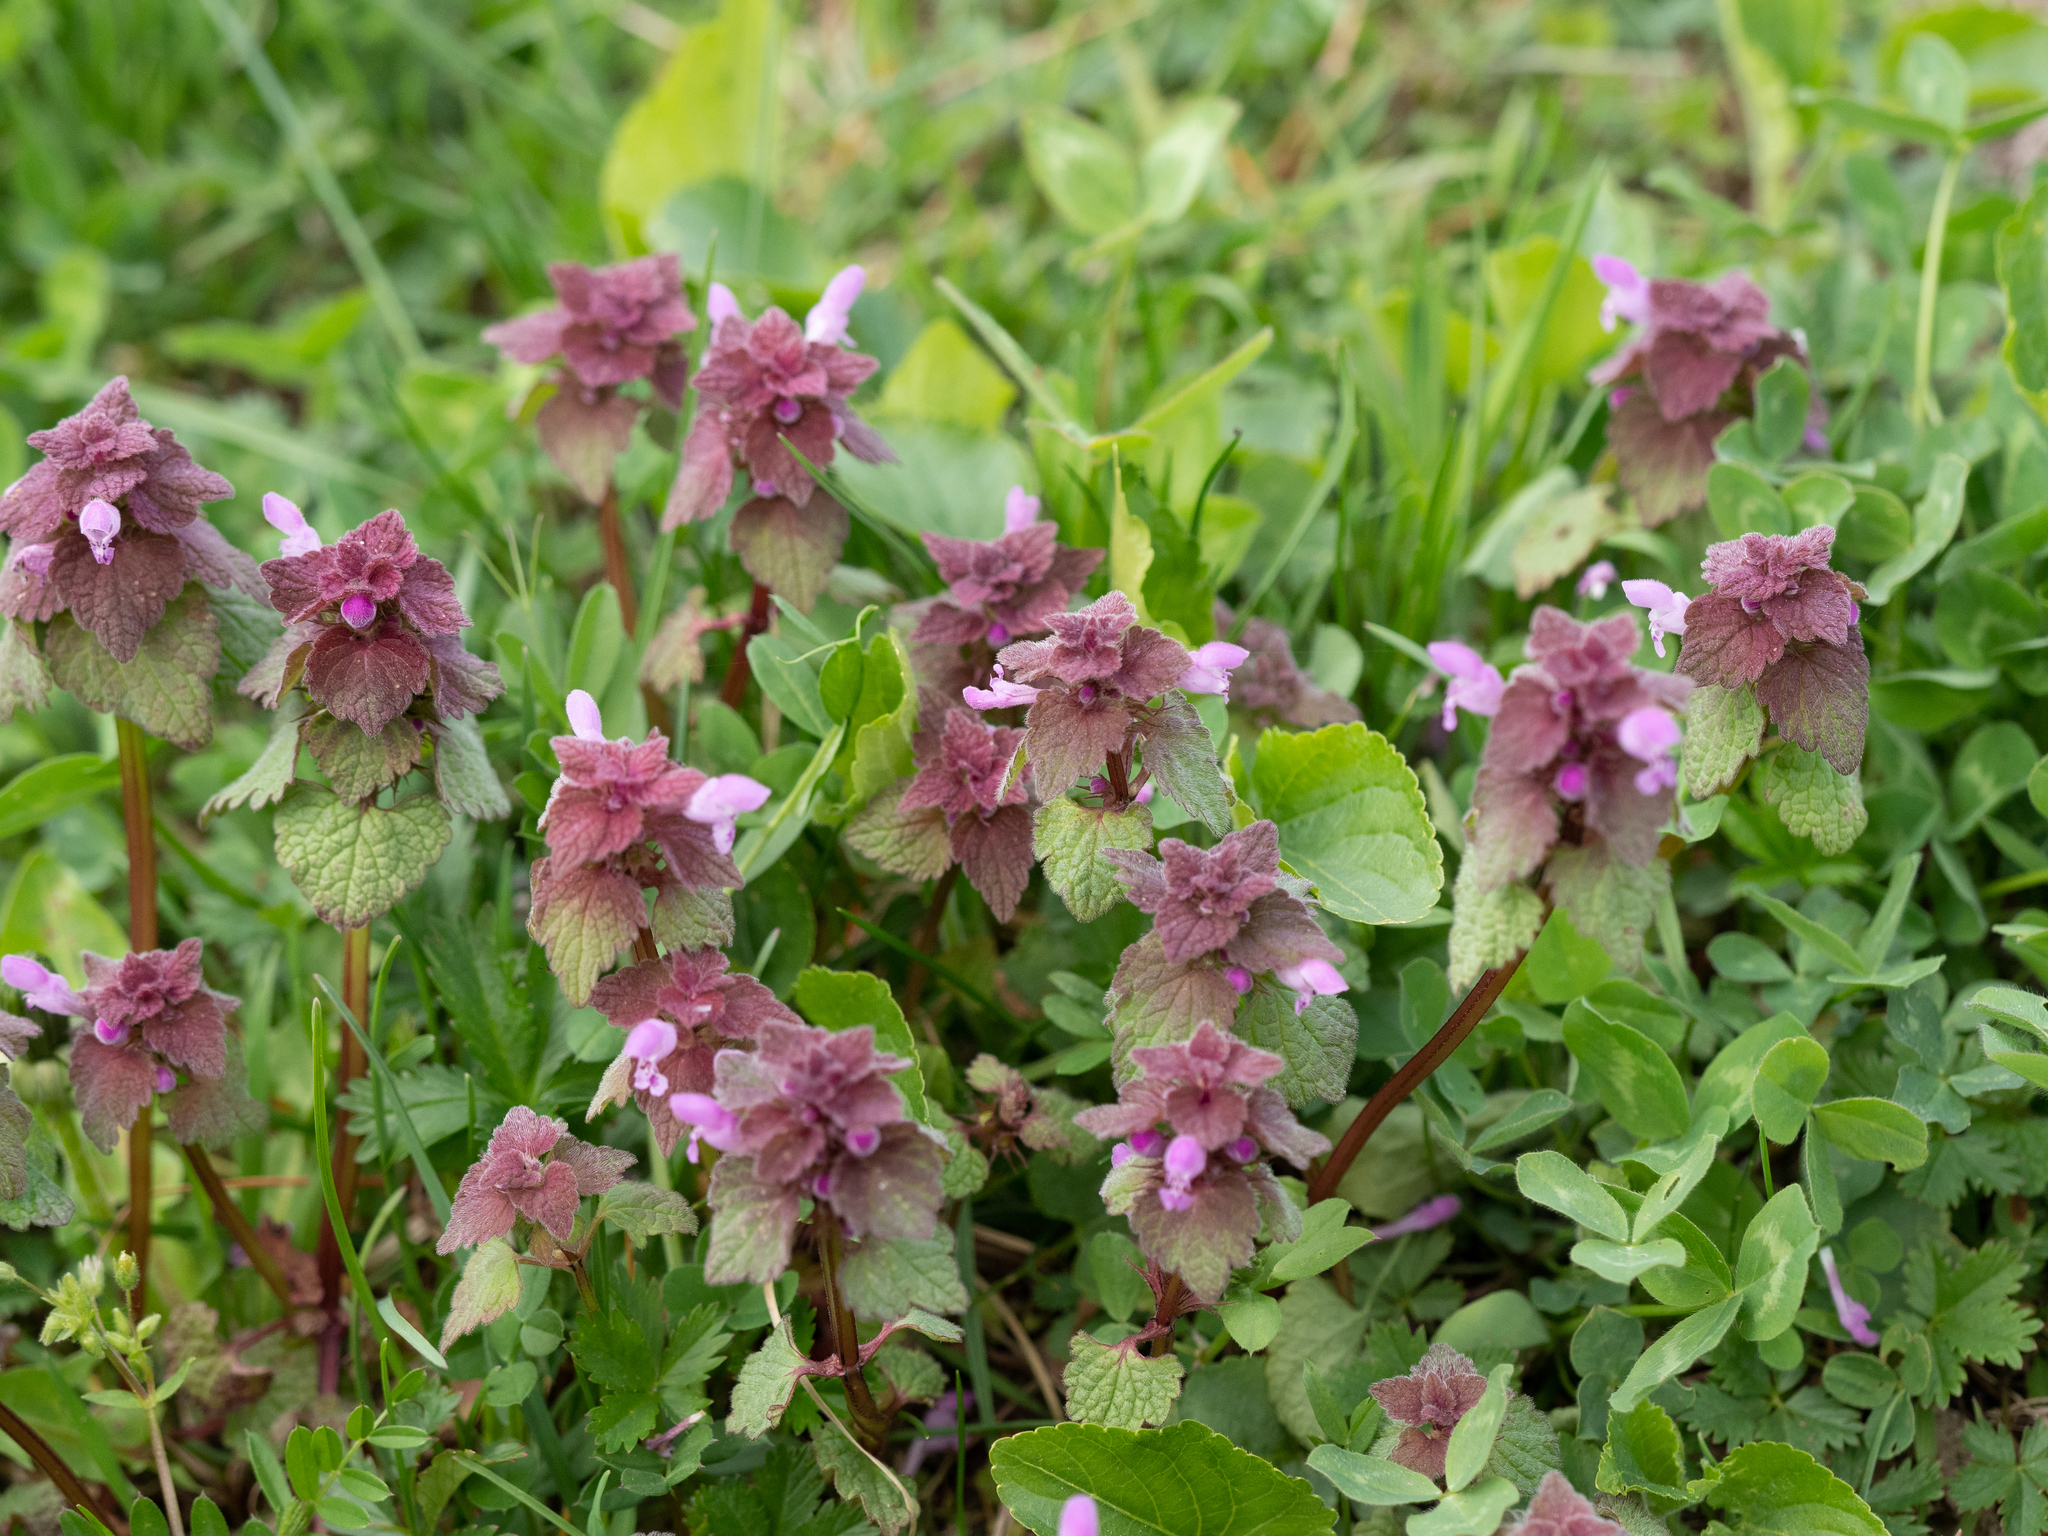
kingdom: Plantae
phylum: Tracheophyta
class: Magnoliopsida
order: Lamiales
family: Lamiaceae
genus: Lamium
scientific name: Lamium purpureum
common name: Red dead-nettle
